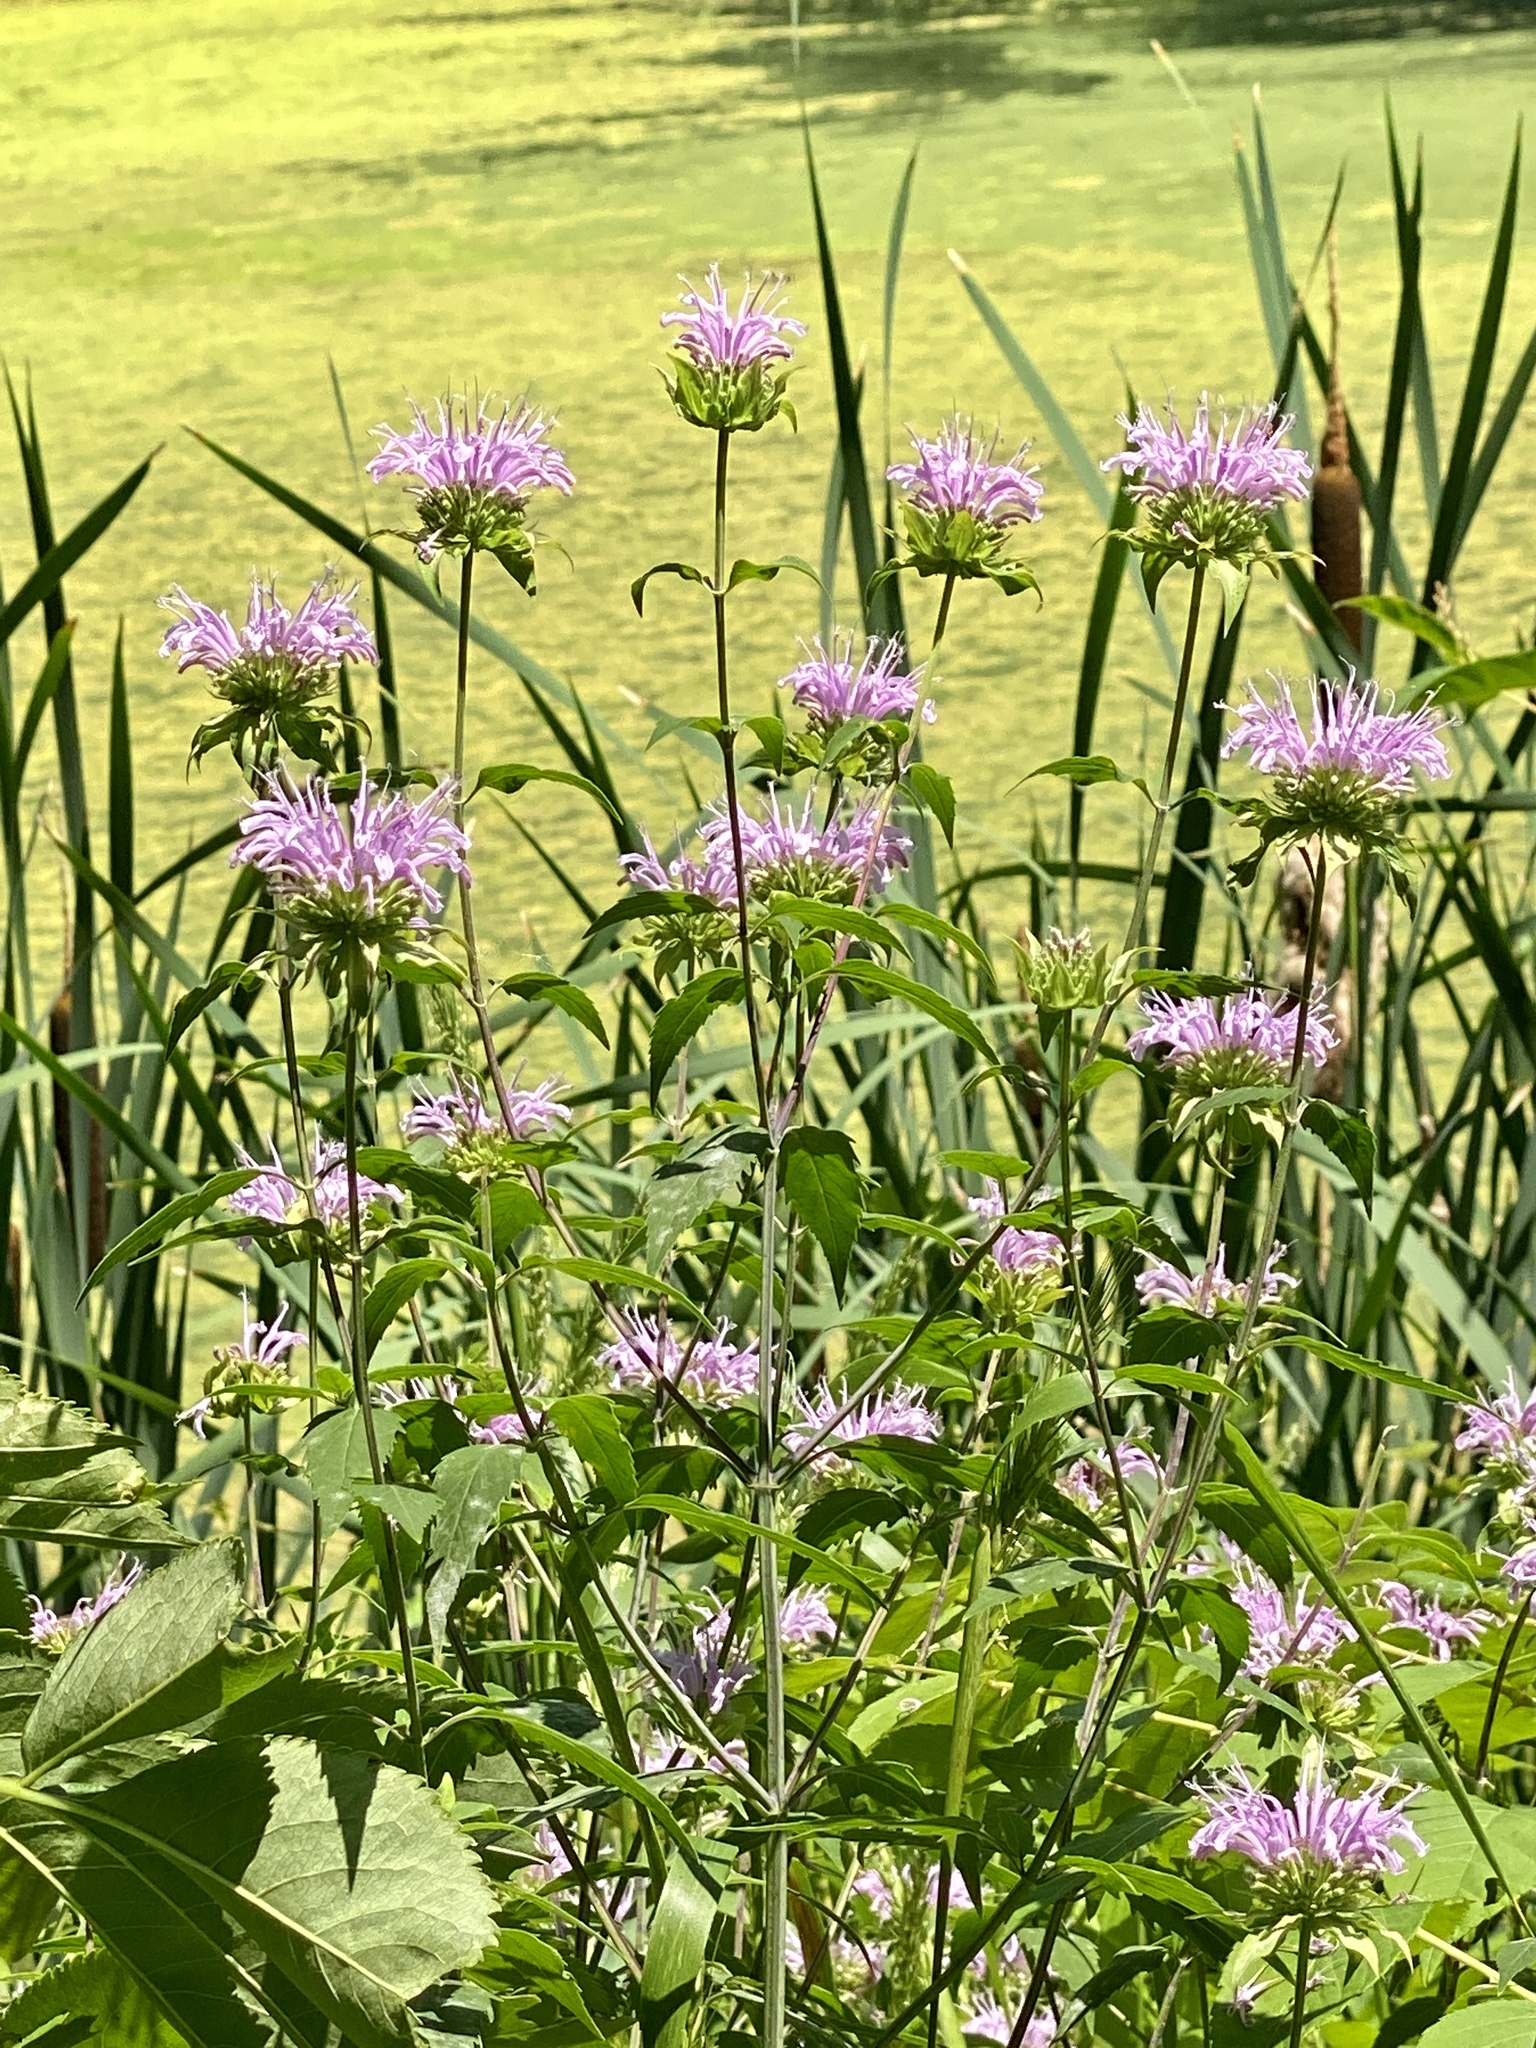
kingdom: Plantae
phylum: Tracheophyta
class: Magnoliopsida
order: Lamiales
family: Lamiaceae
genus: Monarda
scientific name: Monarda fistulosa
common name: Purple beebalm
